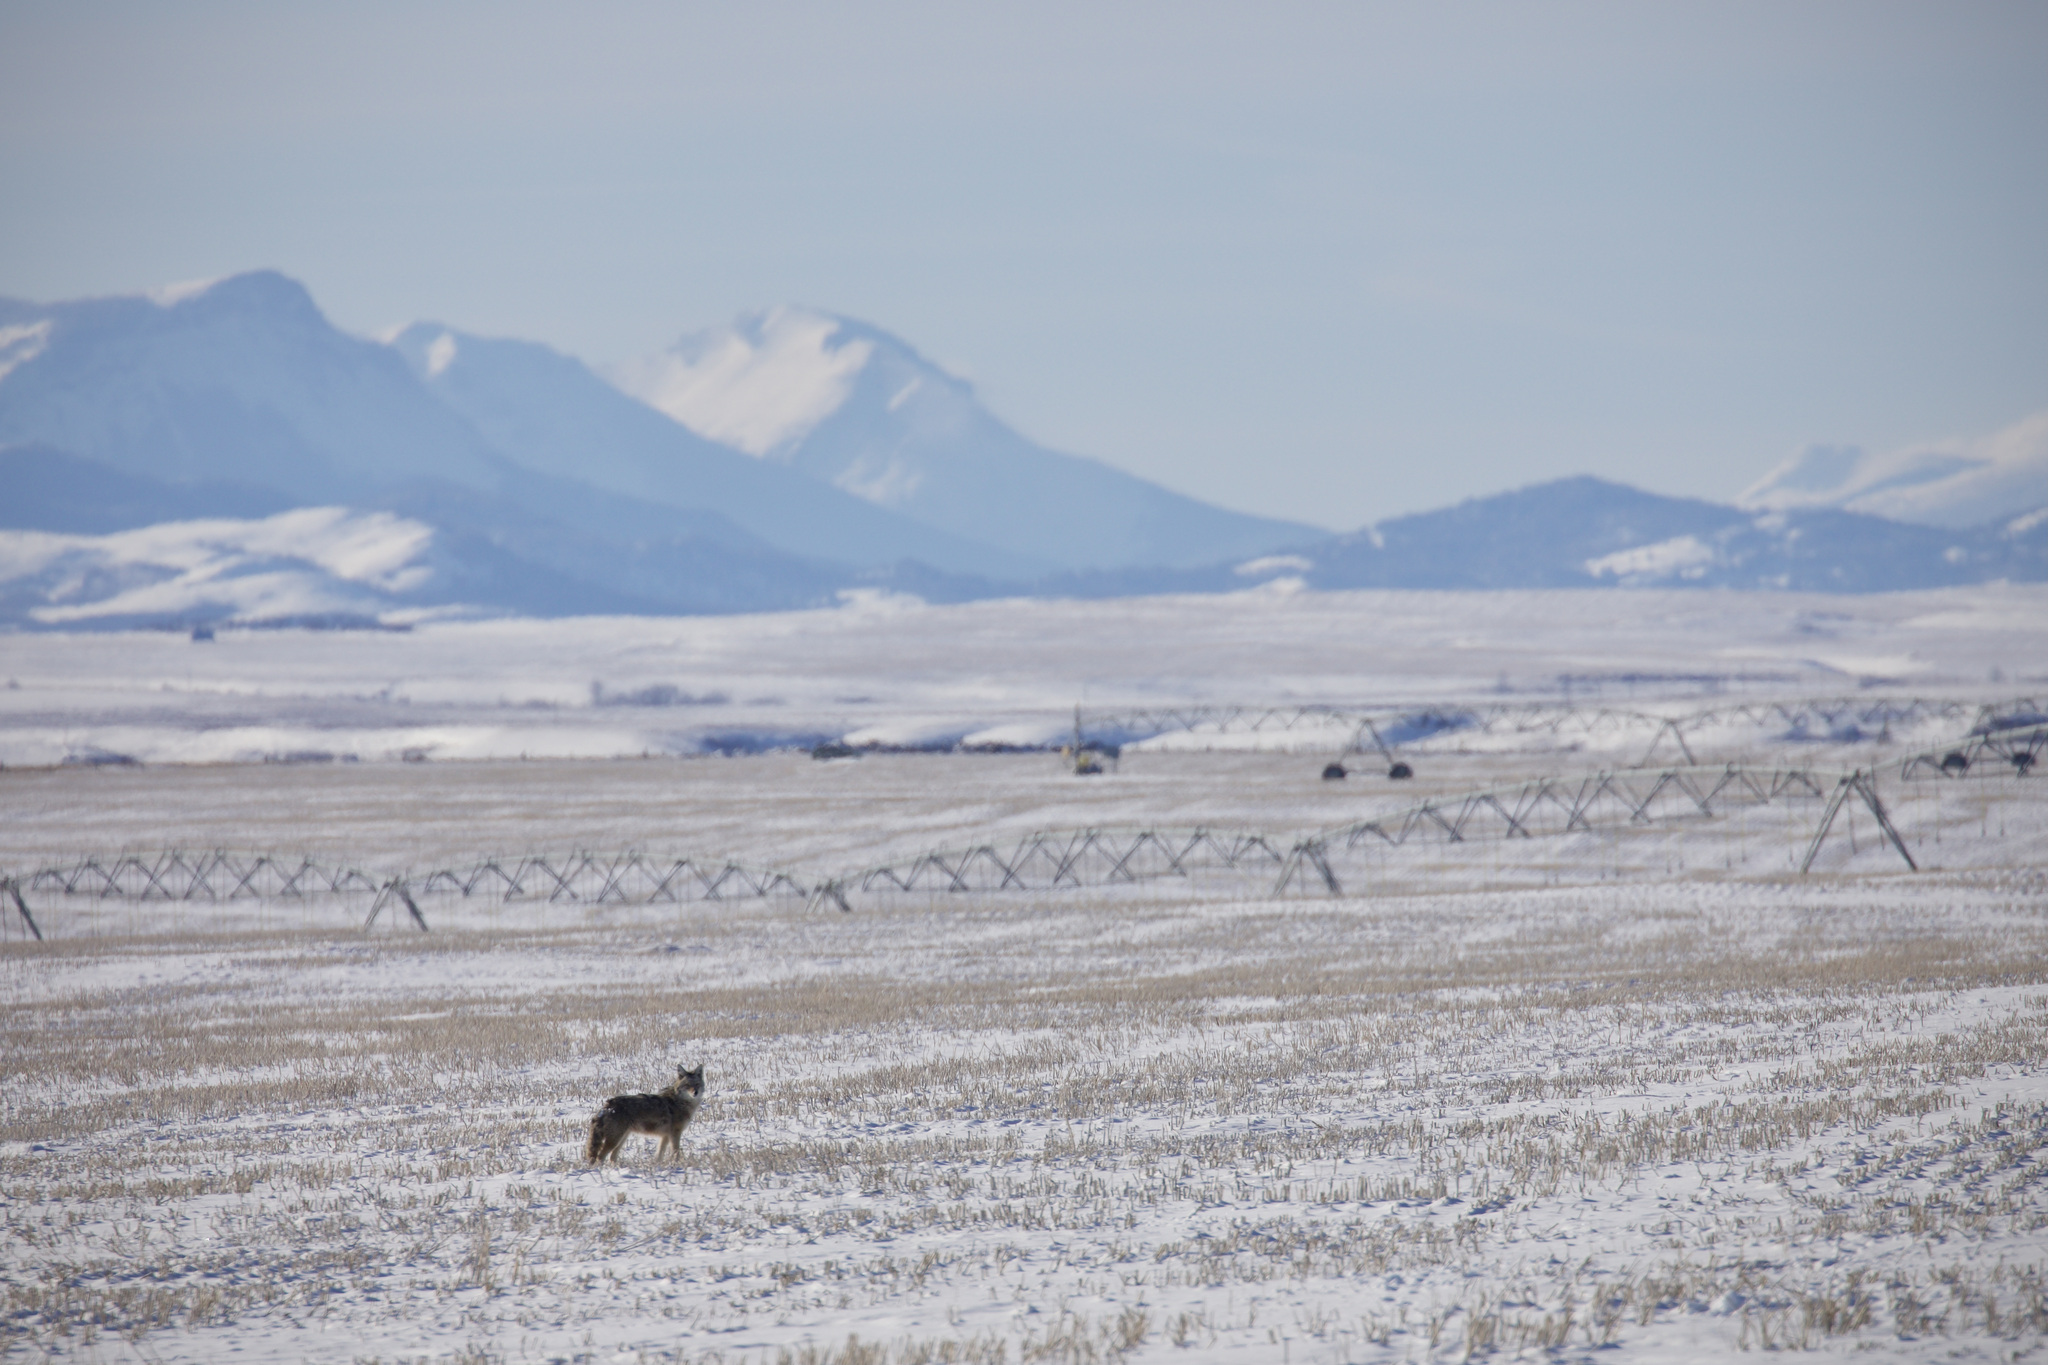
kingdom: Animalia
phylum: Chordata
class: Mammalia
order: Carnivora
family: Canidae
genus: Canis
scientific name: Canis latrans
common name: Coyote
